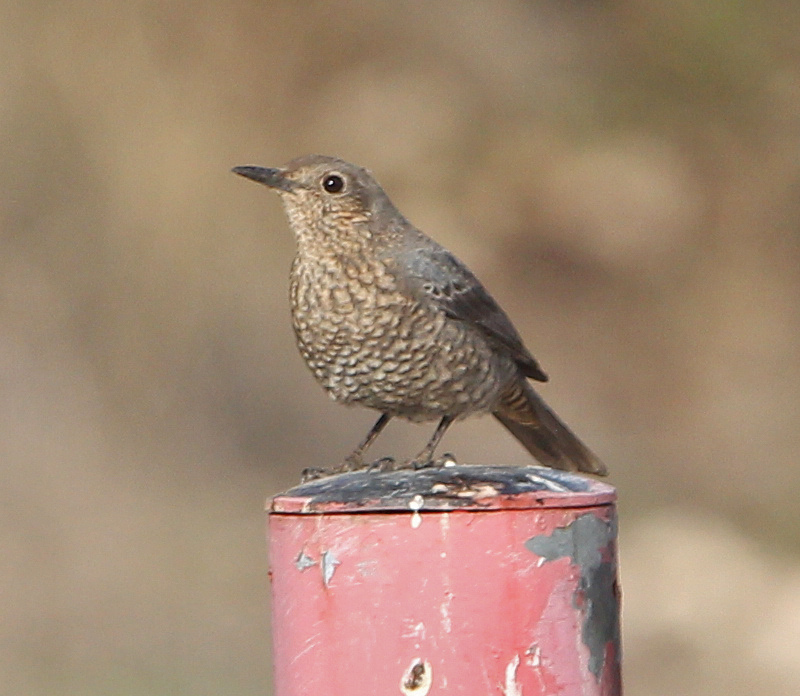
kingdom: Animalia
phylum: Chordata
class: Aves
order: Passeriformes
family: Muscicapidae
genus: Monticola
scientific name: Monticola solitarius
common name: Blue rock thrush
